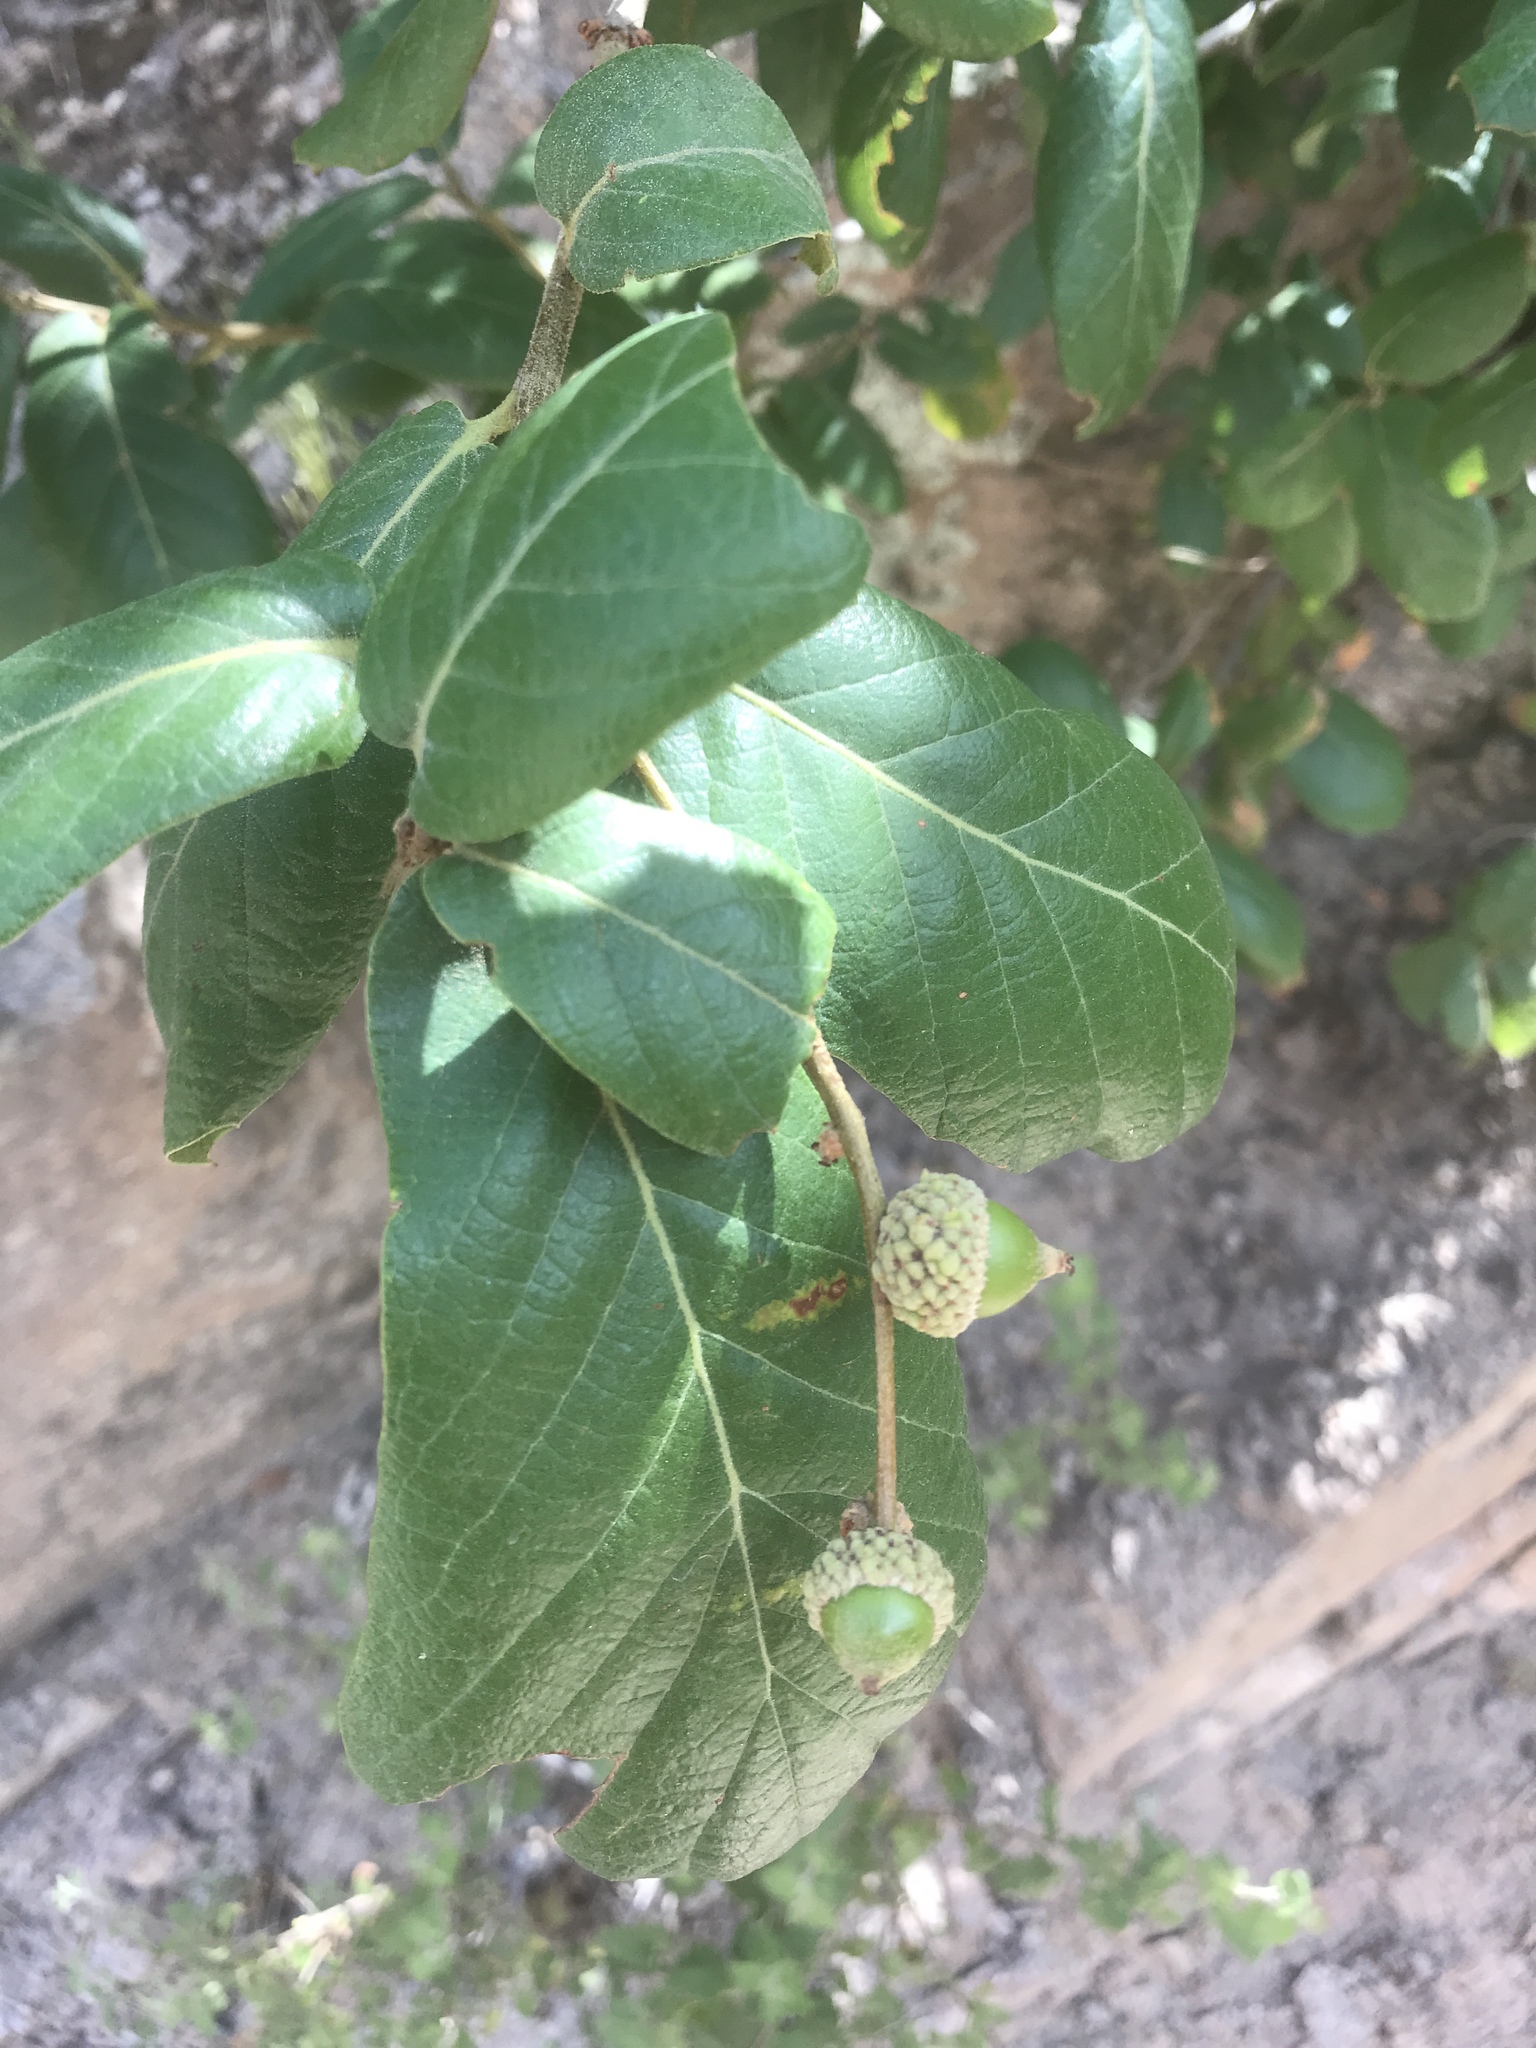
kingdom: Plantae
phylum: Tracheophyta
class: Magnoliopsida
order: Fagales
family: Fagaceae
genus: Quercus
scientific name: Quercus rugosa
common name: Netleaf oak
